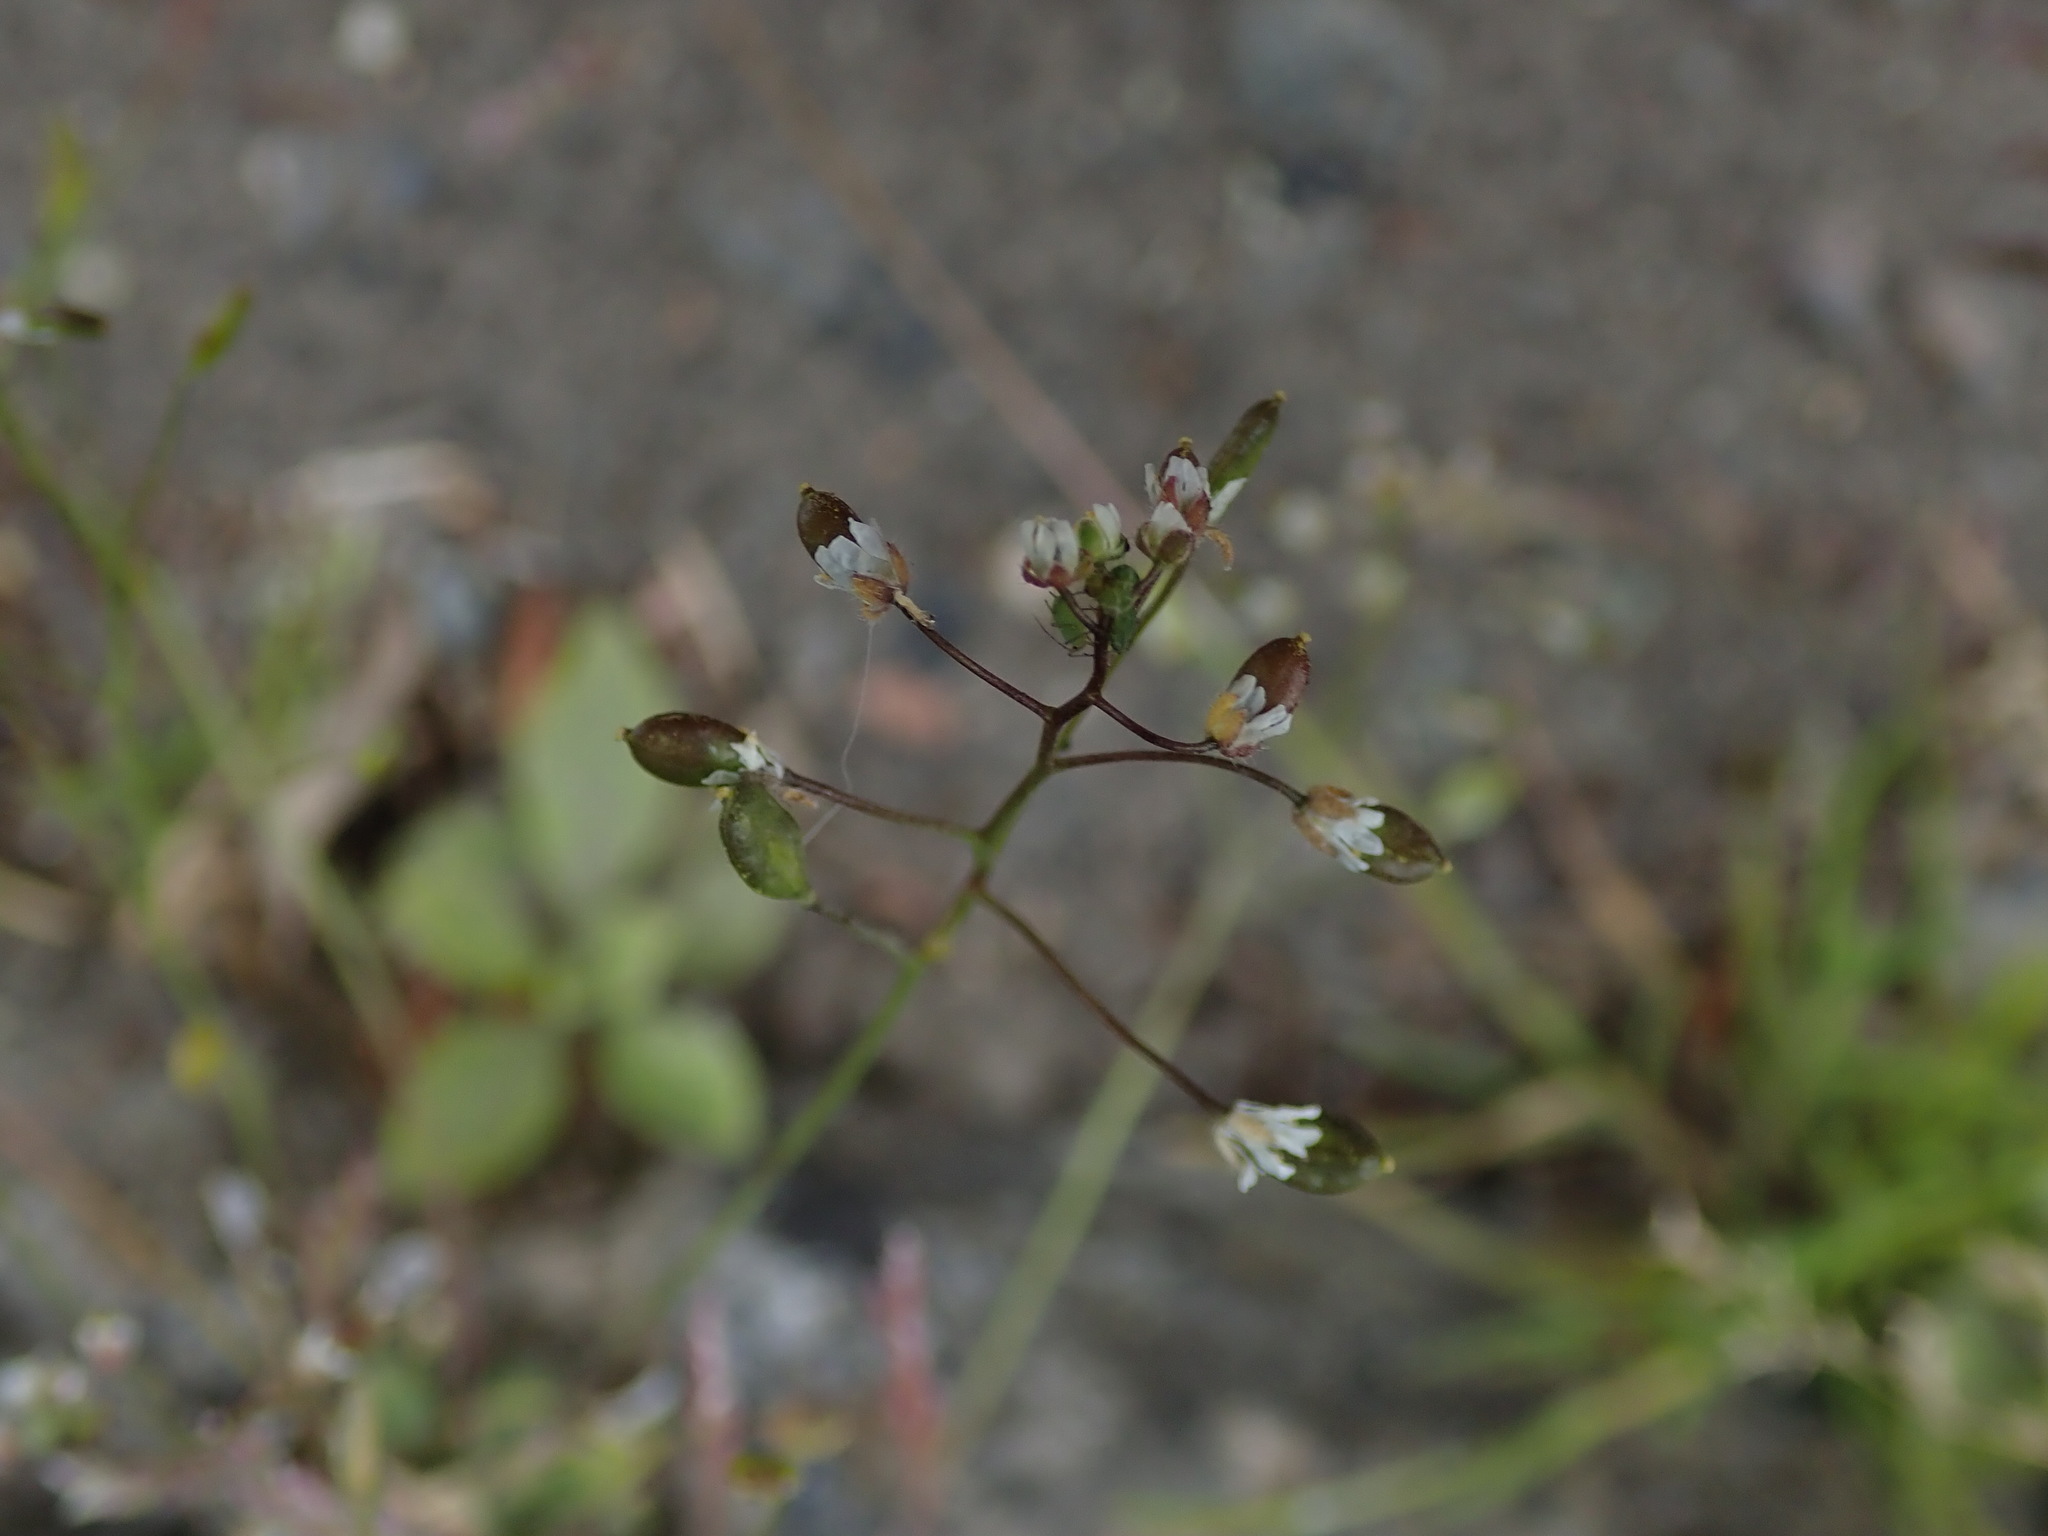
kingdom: Plantae
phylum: Tracheophyta
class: Magnoliopsida
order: Brassicales
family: Brassicaceae
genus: Draba
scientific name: Draba verna
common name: Spring draba
